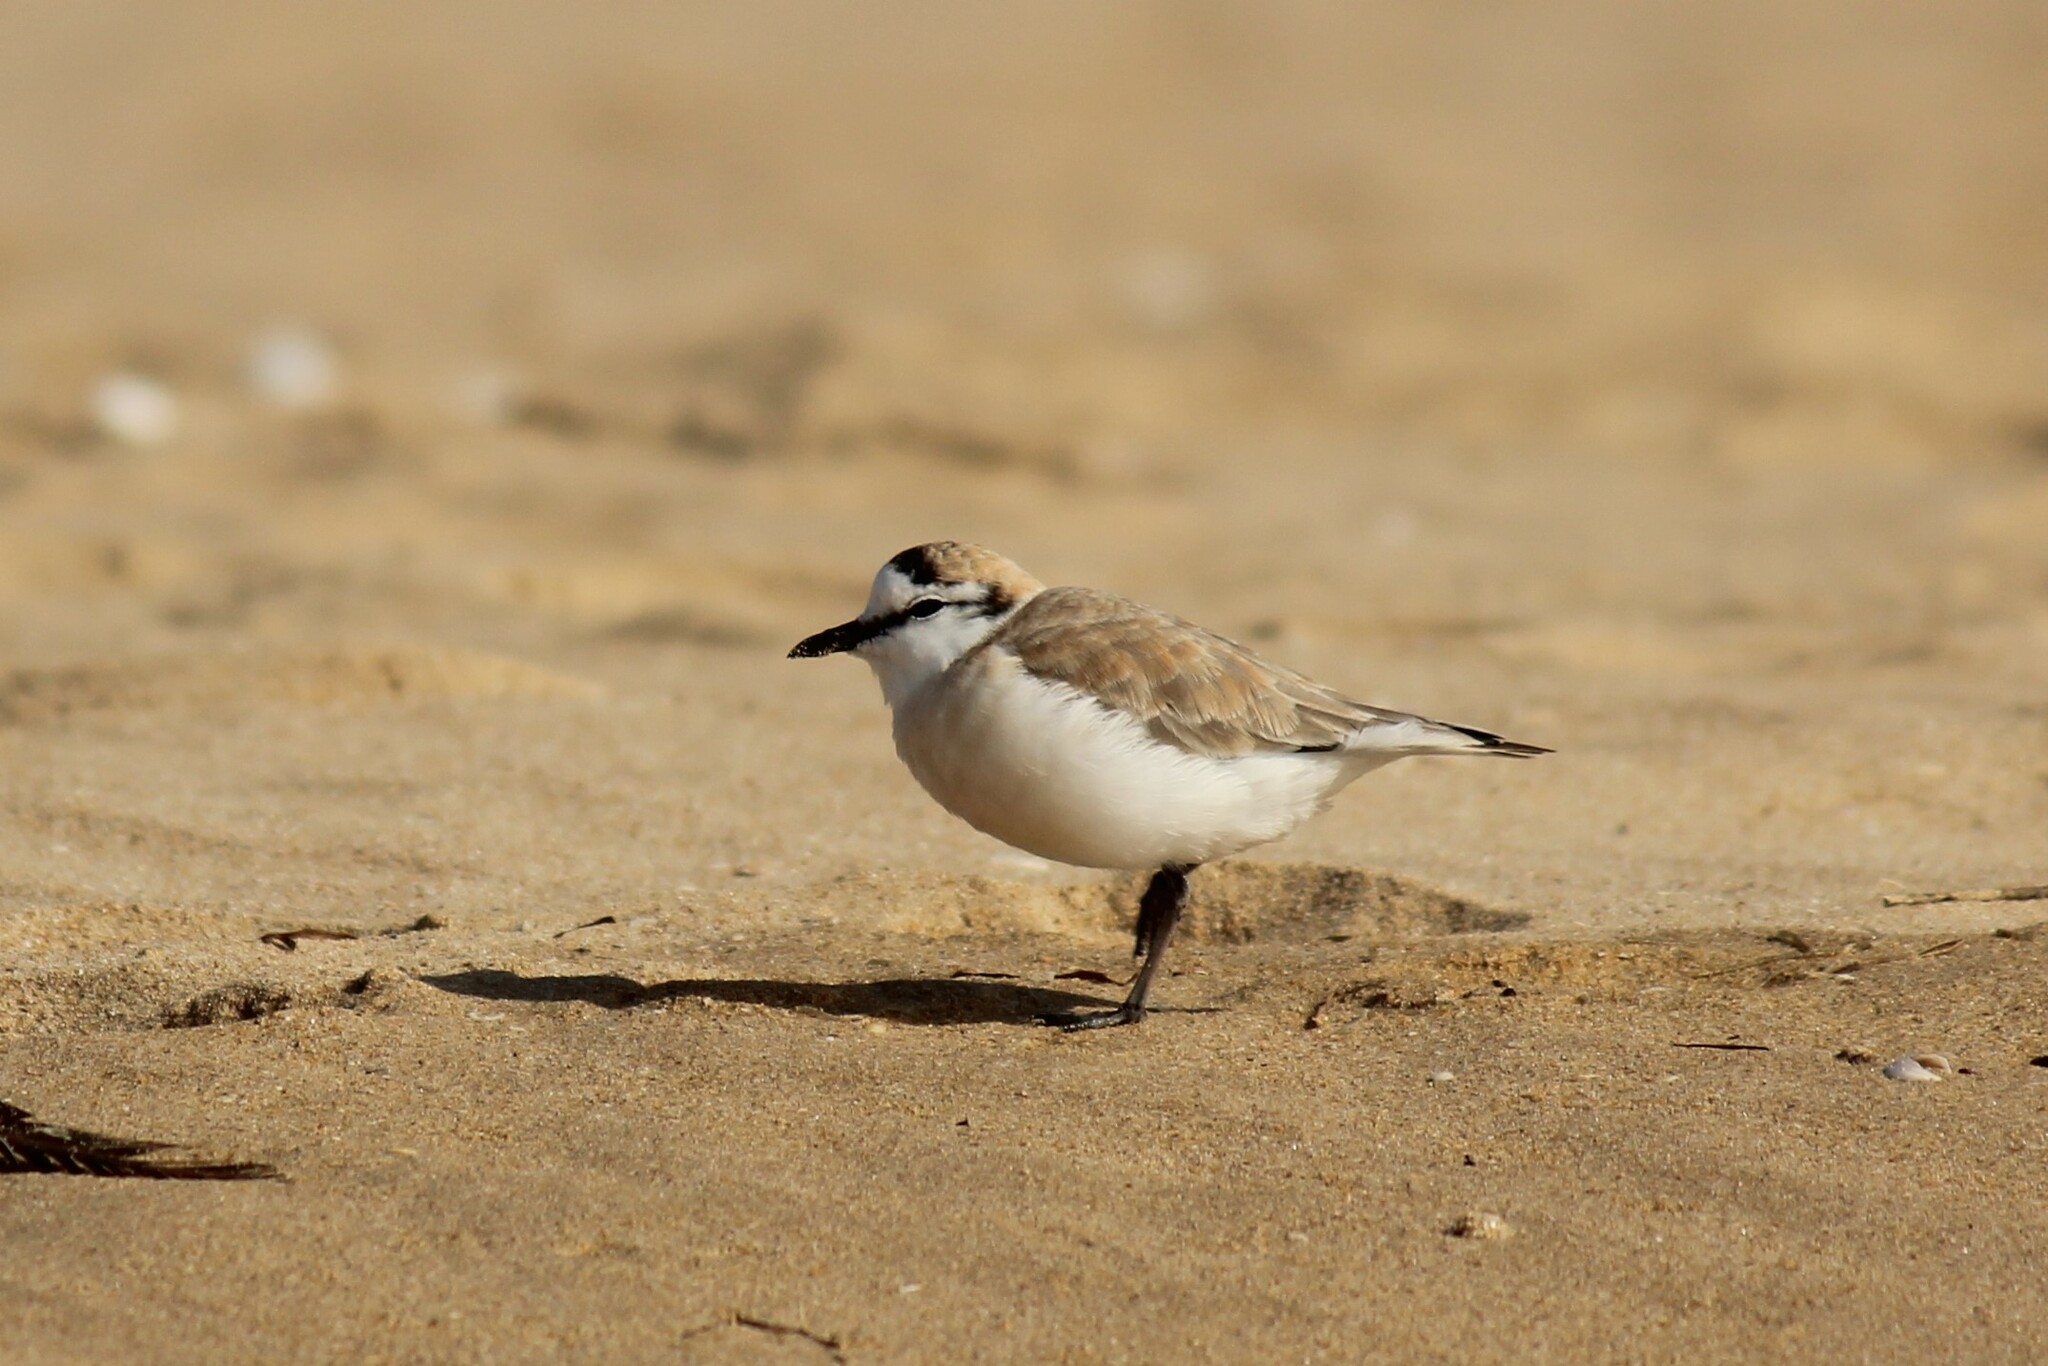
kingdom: Animalia
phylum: Chordata
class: Aves
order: Charadriiformes
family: Charadriidae
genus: Anarhynchus
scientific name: Anarhynchus
